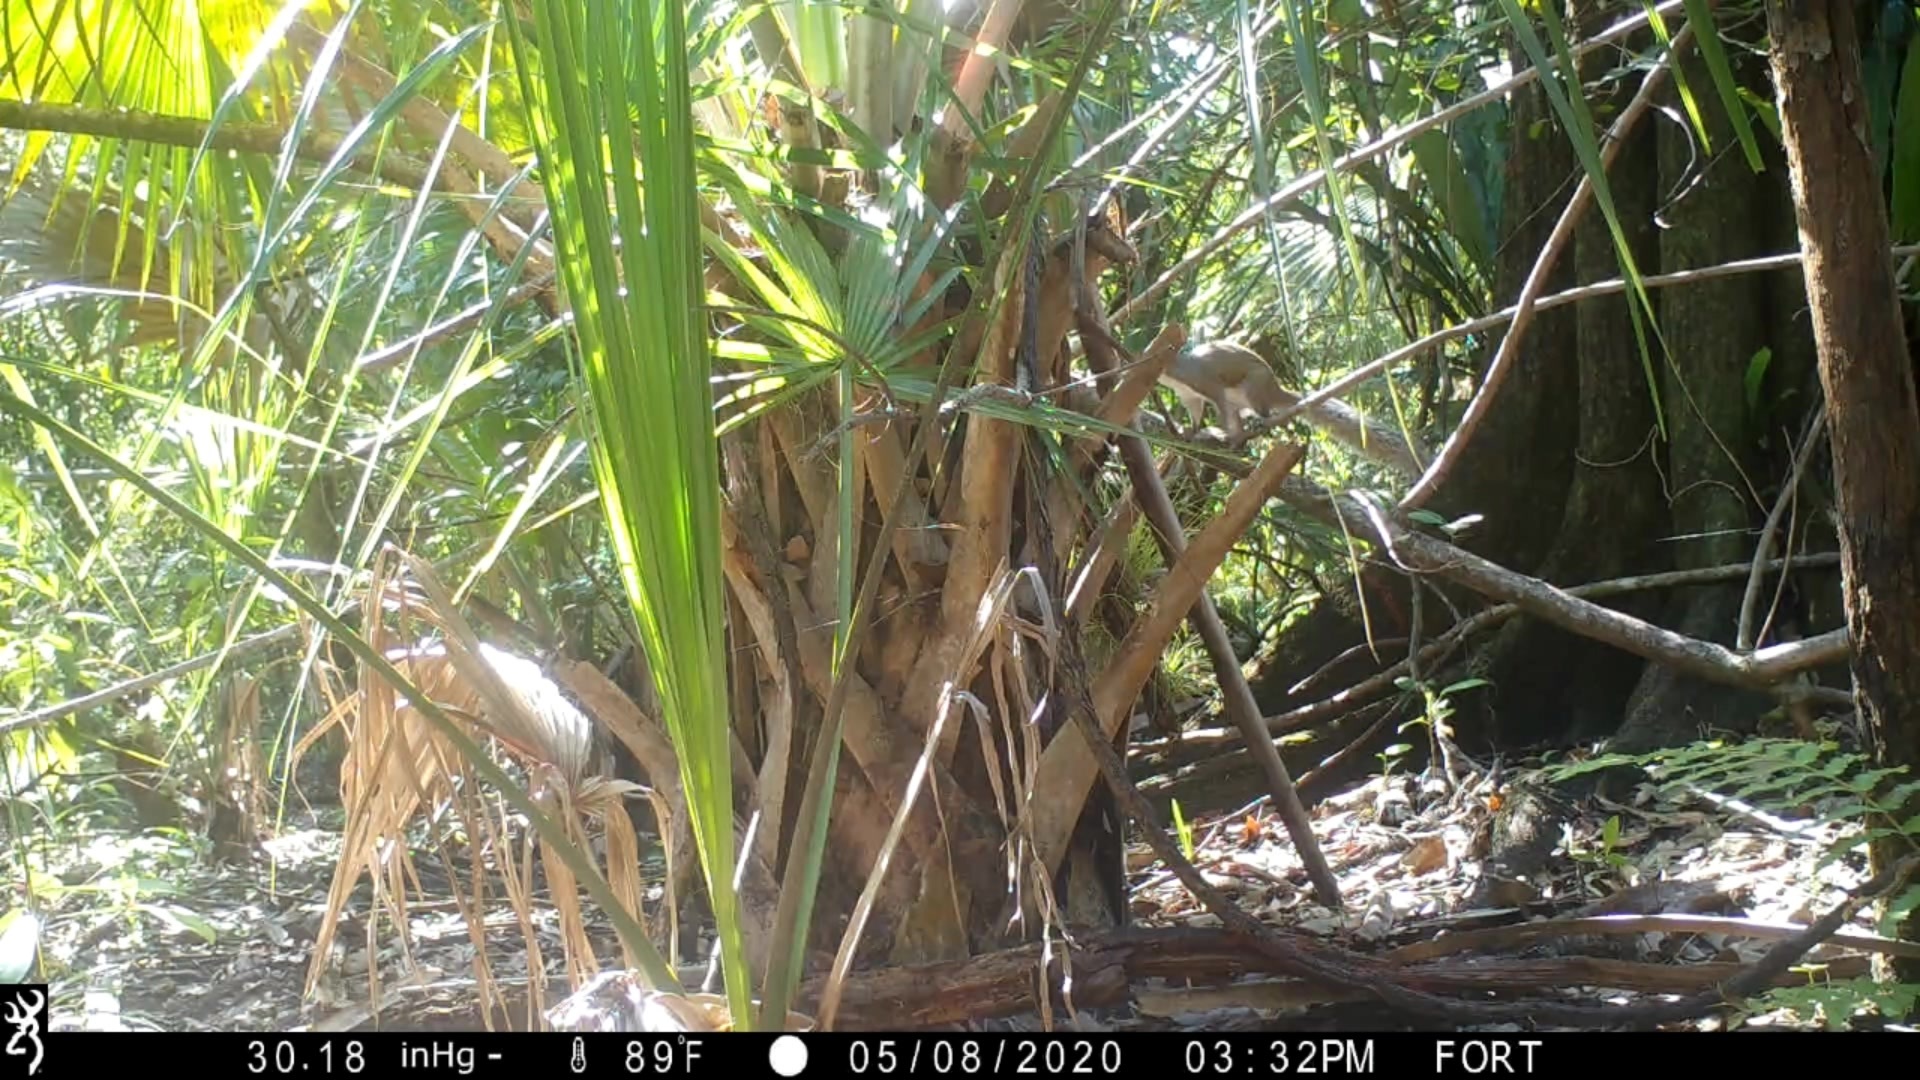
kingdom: Animalia
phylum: Chordata
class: Mammalia
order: Rodentia
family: Sciuridae
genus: Sciurus
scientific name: Sciurus carolinensis
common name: Eastern gray squirrel
